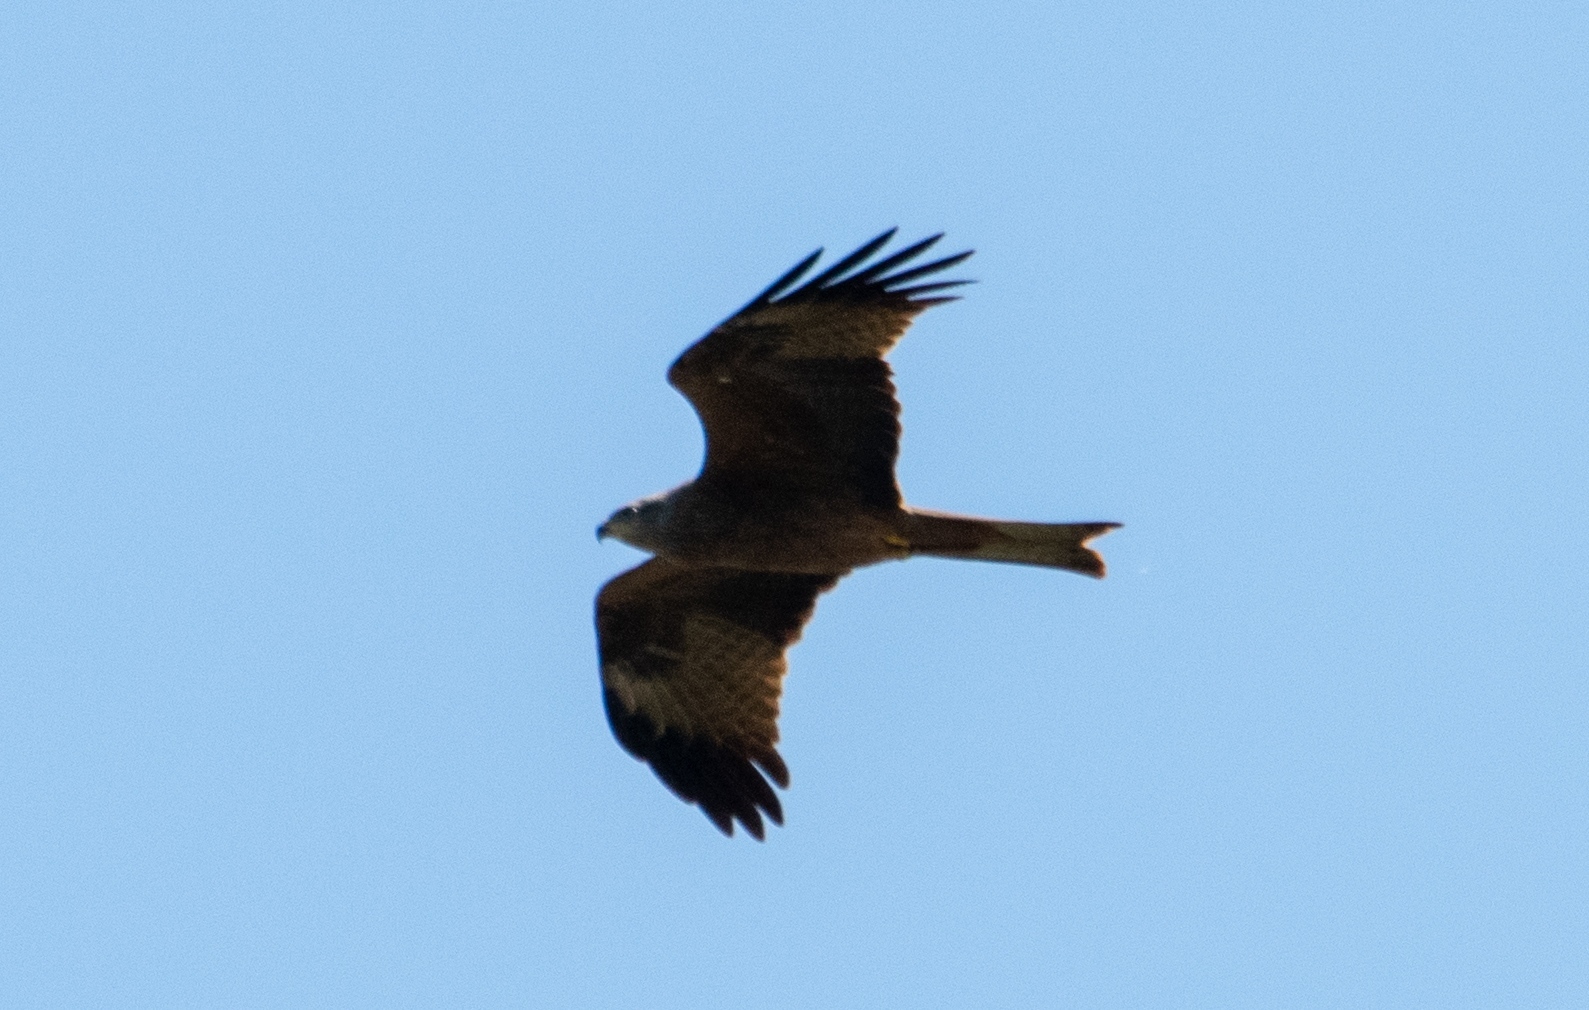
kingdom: Animalia
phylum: Chordata
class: Aves
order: Accipitriformes
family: Accipitridae
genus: Milvus
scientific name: Milvus milvus
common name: Red kite
